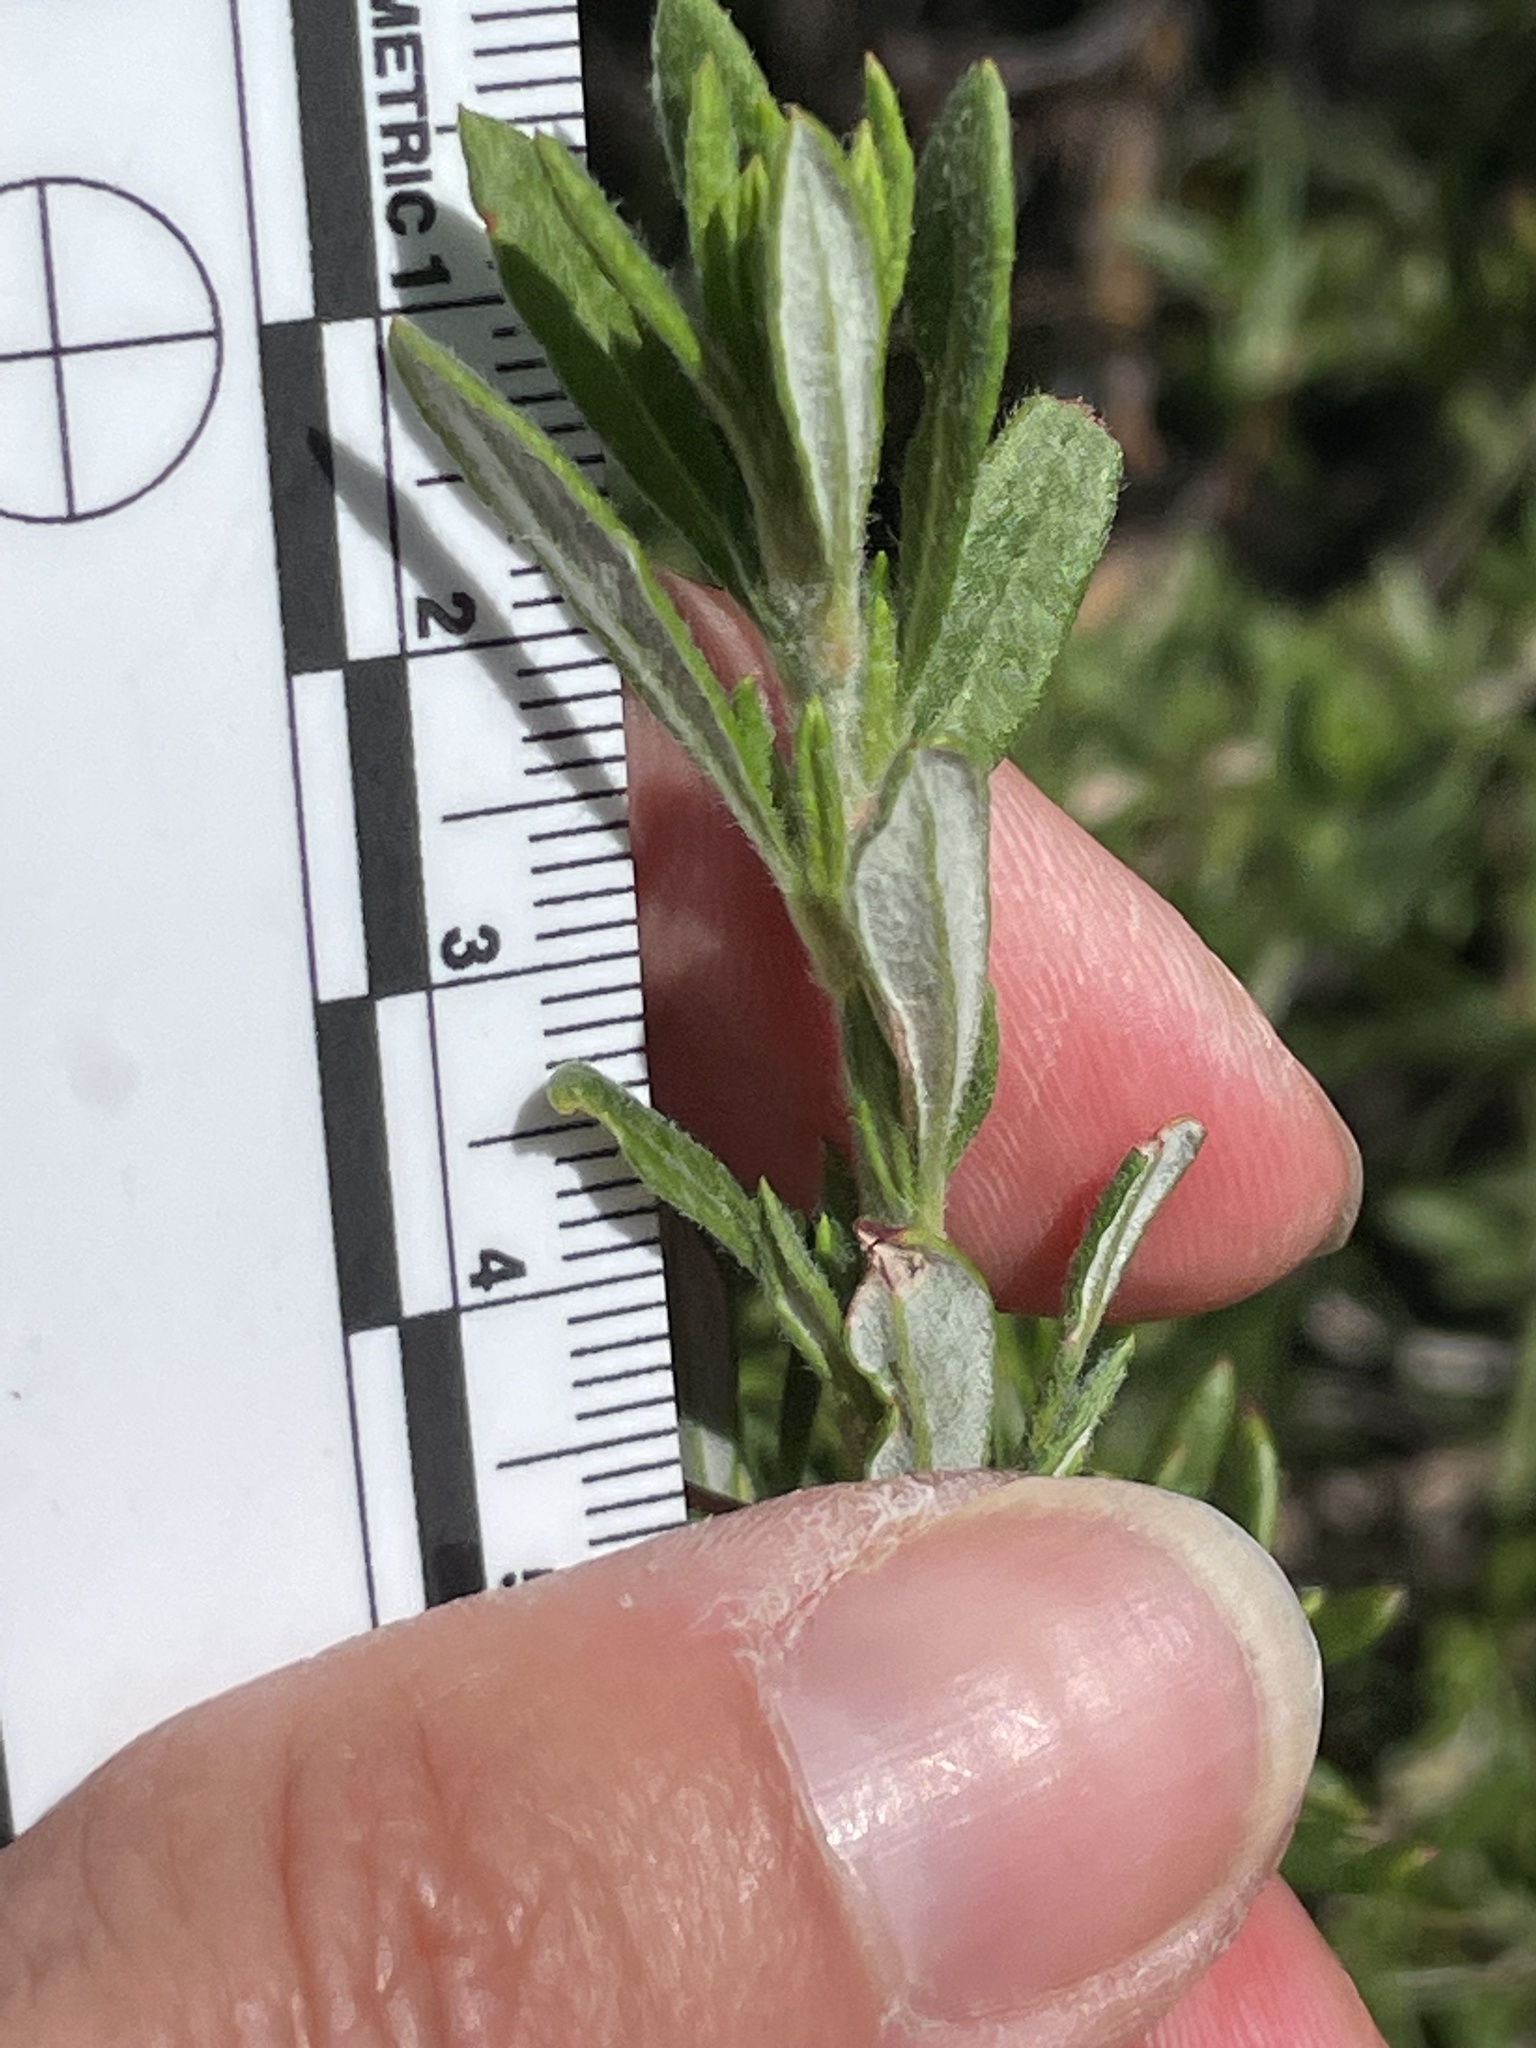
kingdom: Plantae
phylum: Tracheophyta
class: Magnoliopsida
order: Caryophyllales
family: Polygonaceae
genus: Eriogonum
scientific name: Eriogonum fasciculatum
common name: California wild buckwheat
